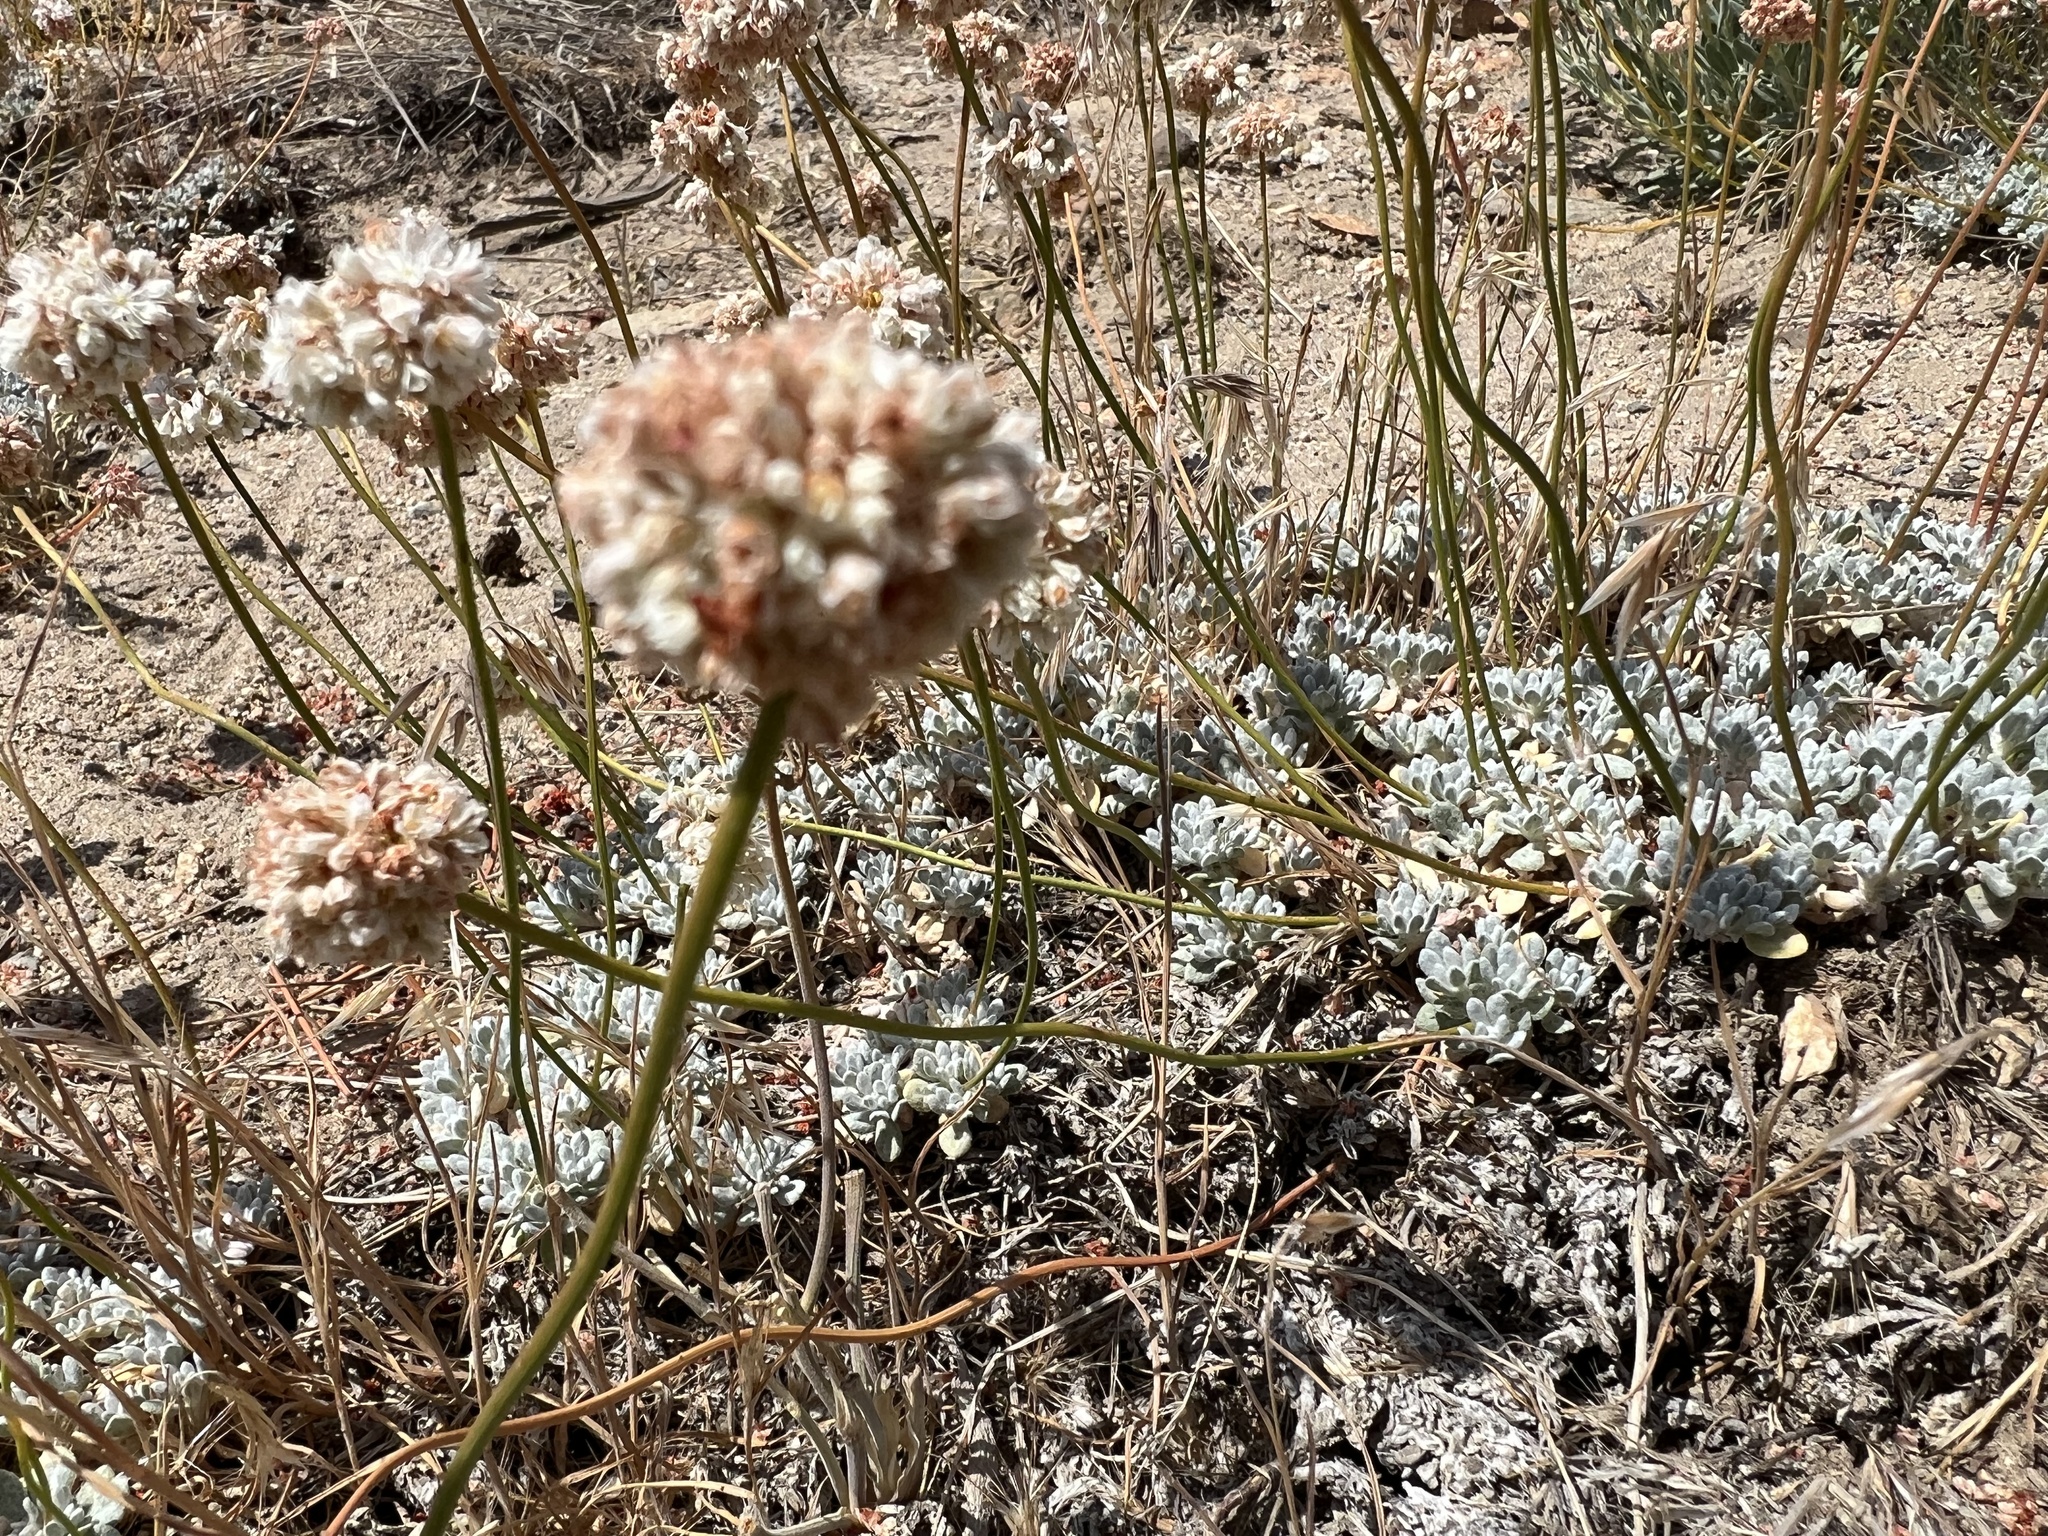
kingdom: Plantae
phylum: Tracheophyta
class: Magnoliopsida
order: Caryophyllales
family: Polygonaceae
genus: Eriogonum
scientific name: Eriogonum kennedyi
